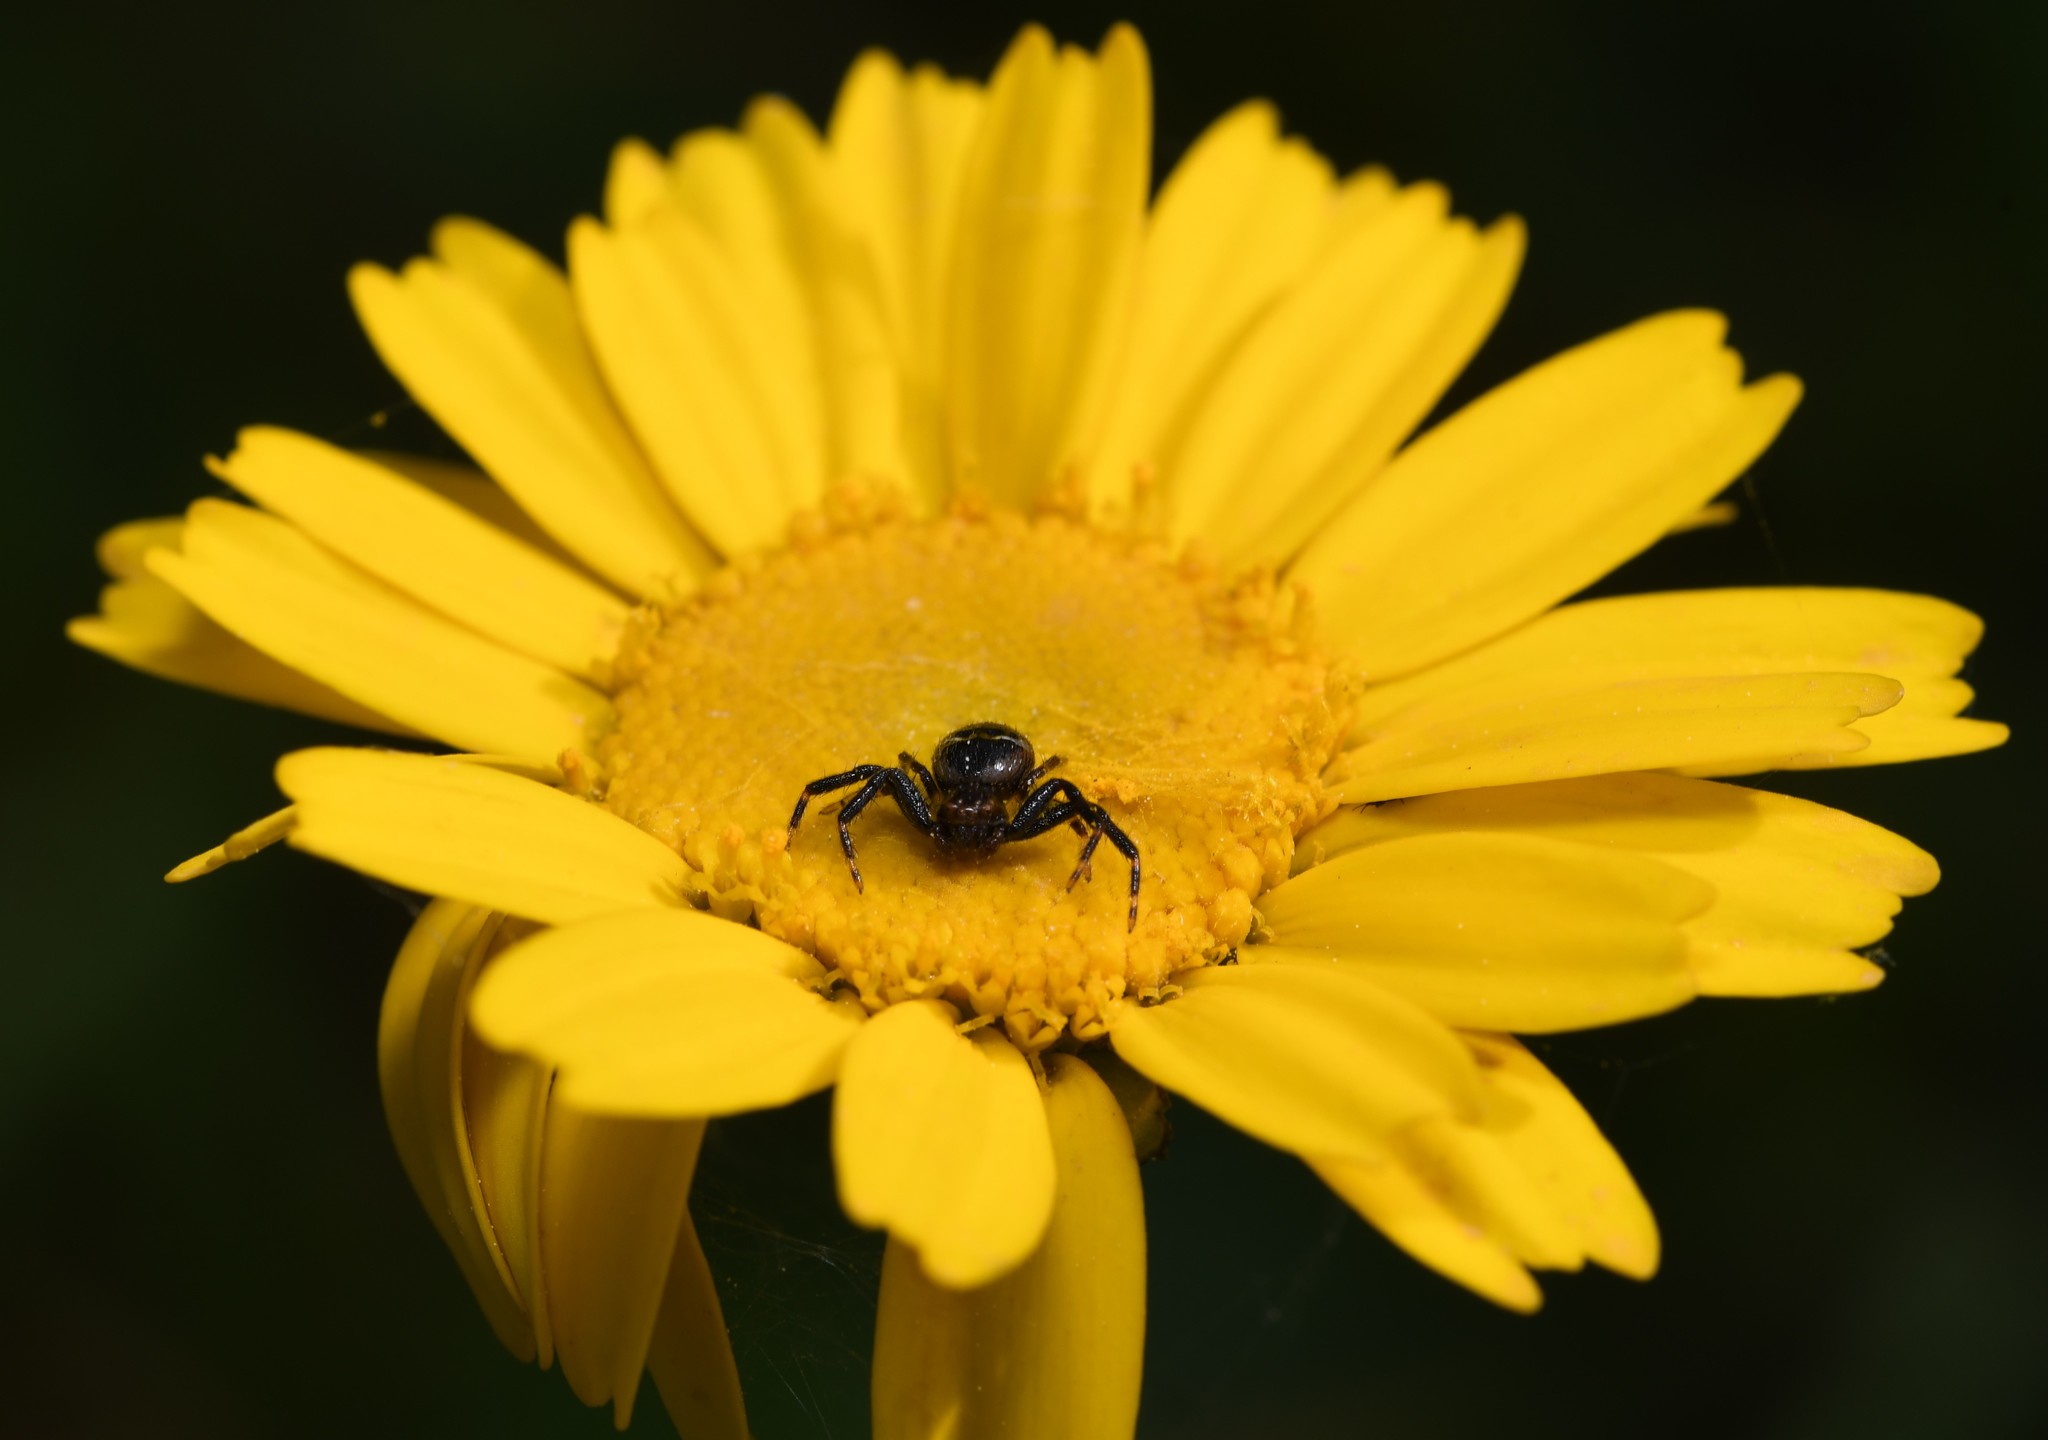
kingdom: Animalia
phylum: Arthropoda
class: Arachnida
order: Araneae
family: Thomisidae
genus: Synema
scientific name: Synema globosum
